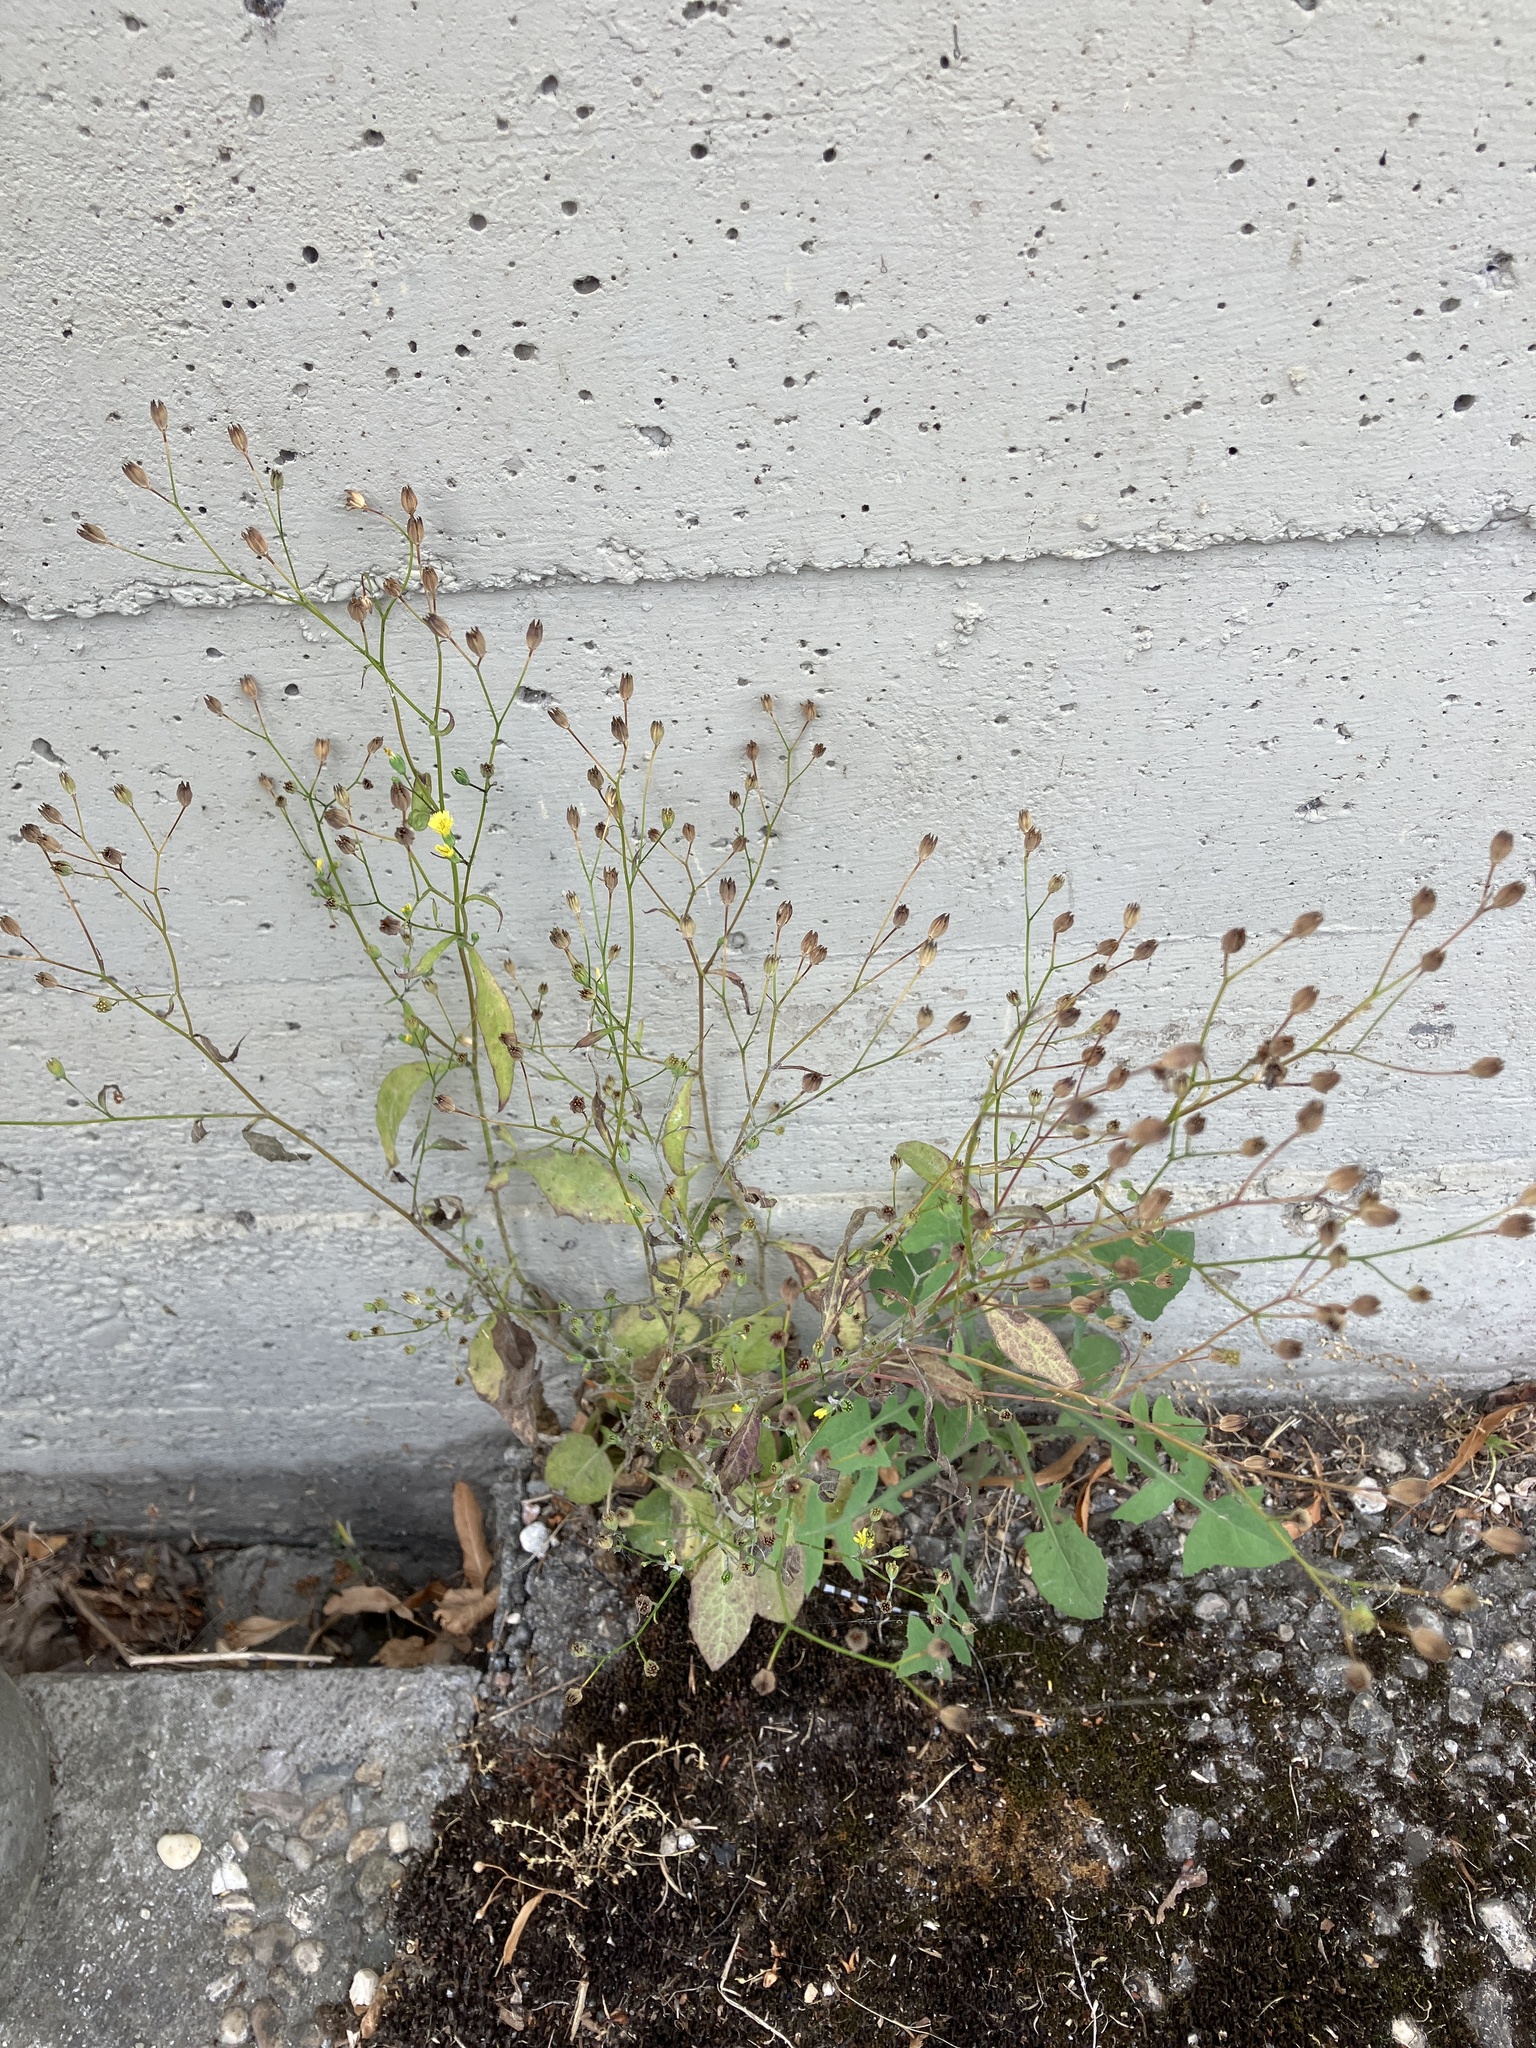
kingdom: Plantae
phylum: Tracheophyta
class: Magnoliopsida
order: Asterales
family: Asteraceae
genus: Lapsana
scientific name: Lapsana communis
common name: Nipplewort
